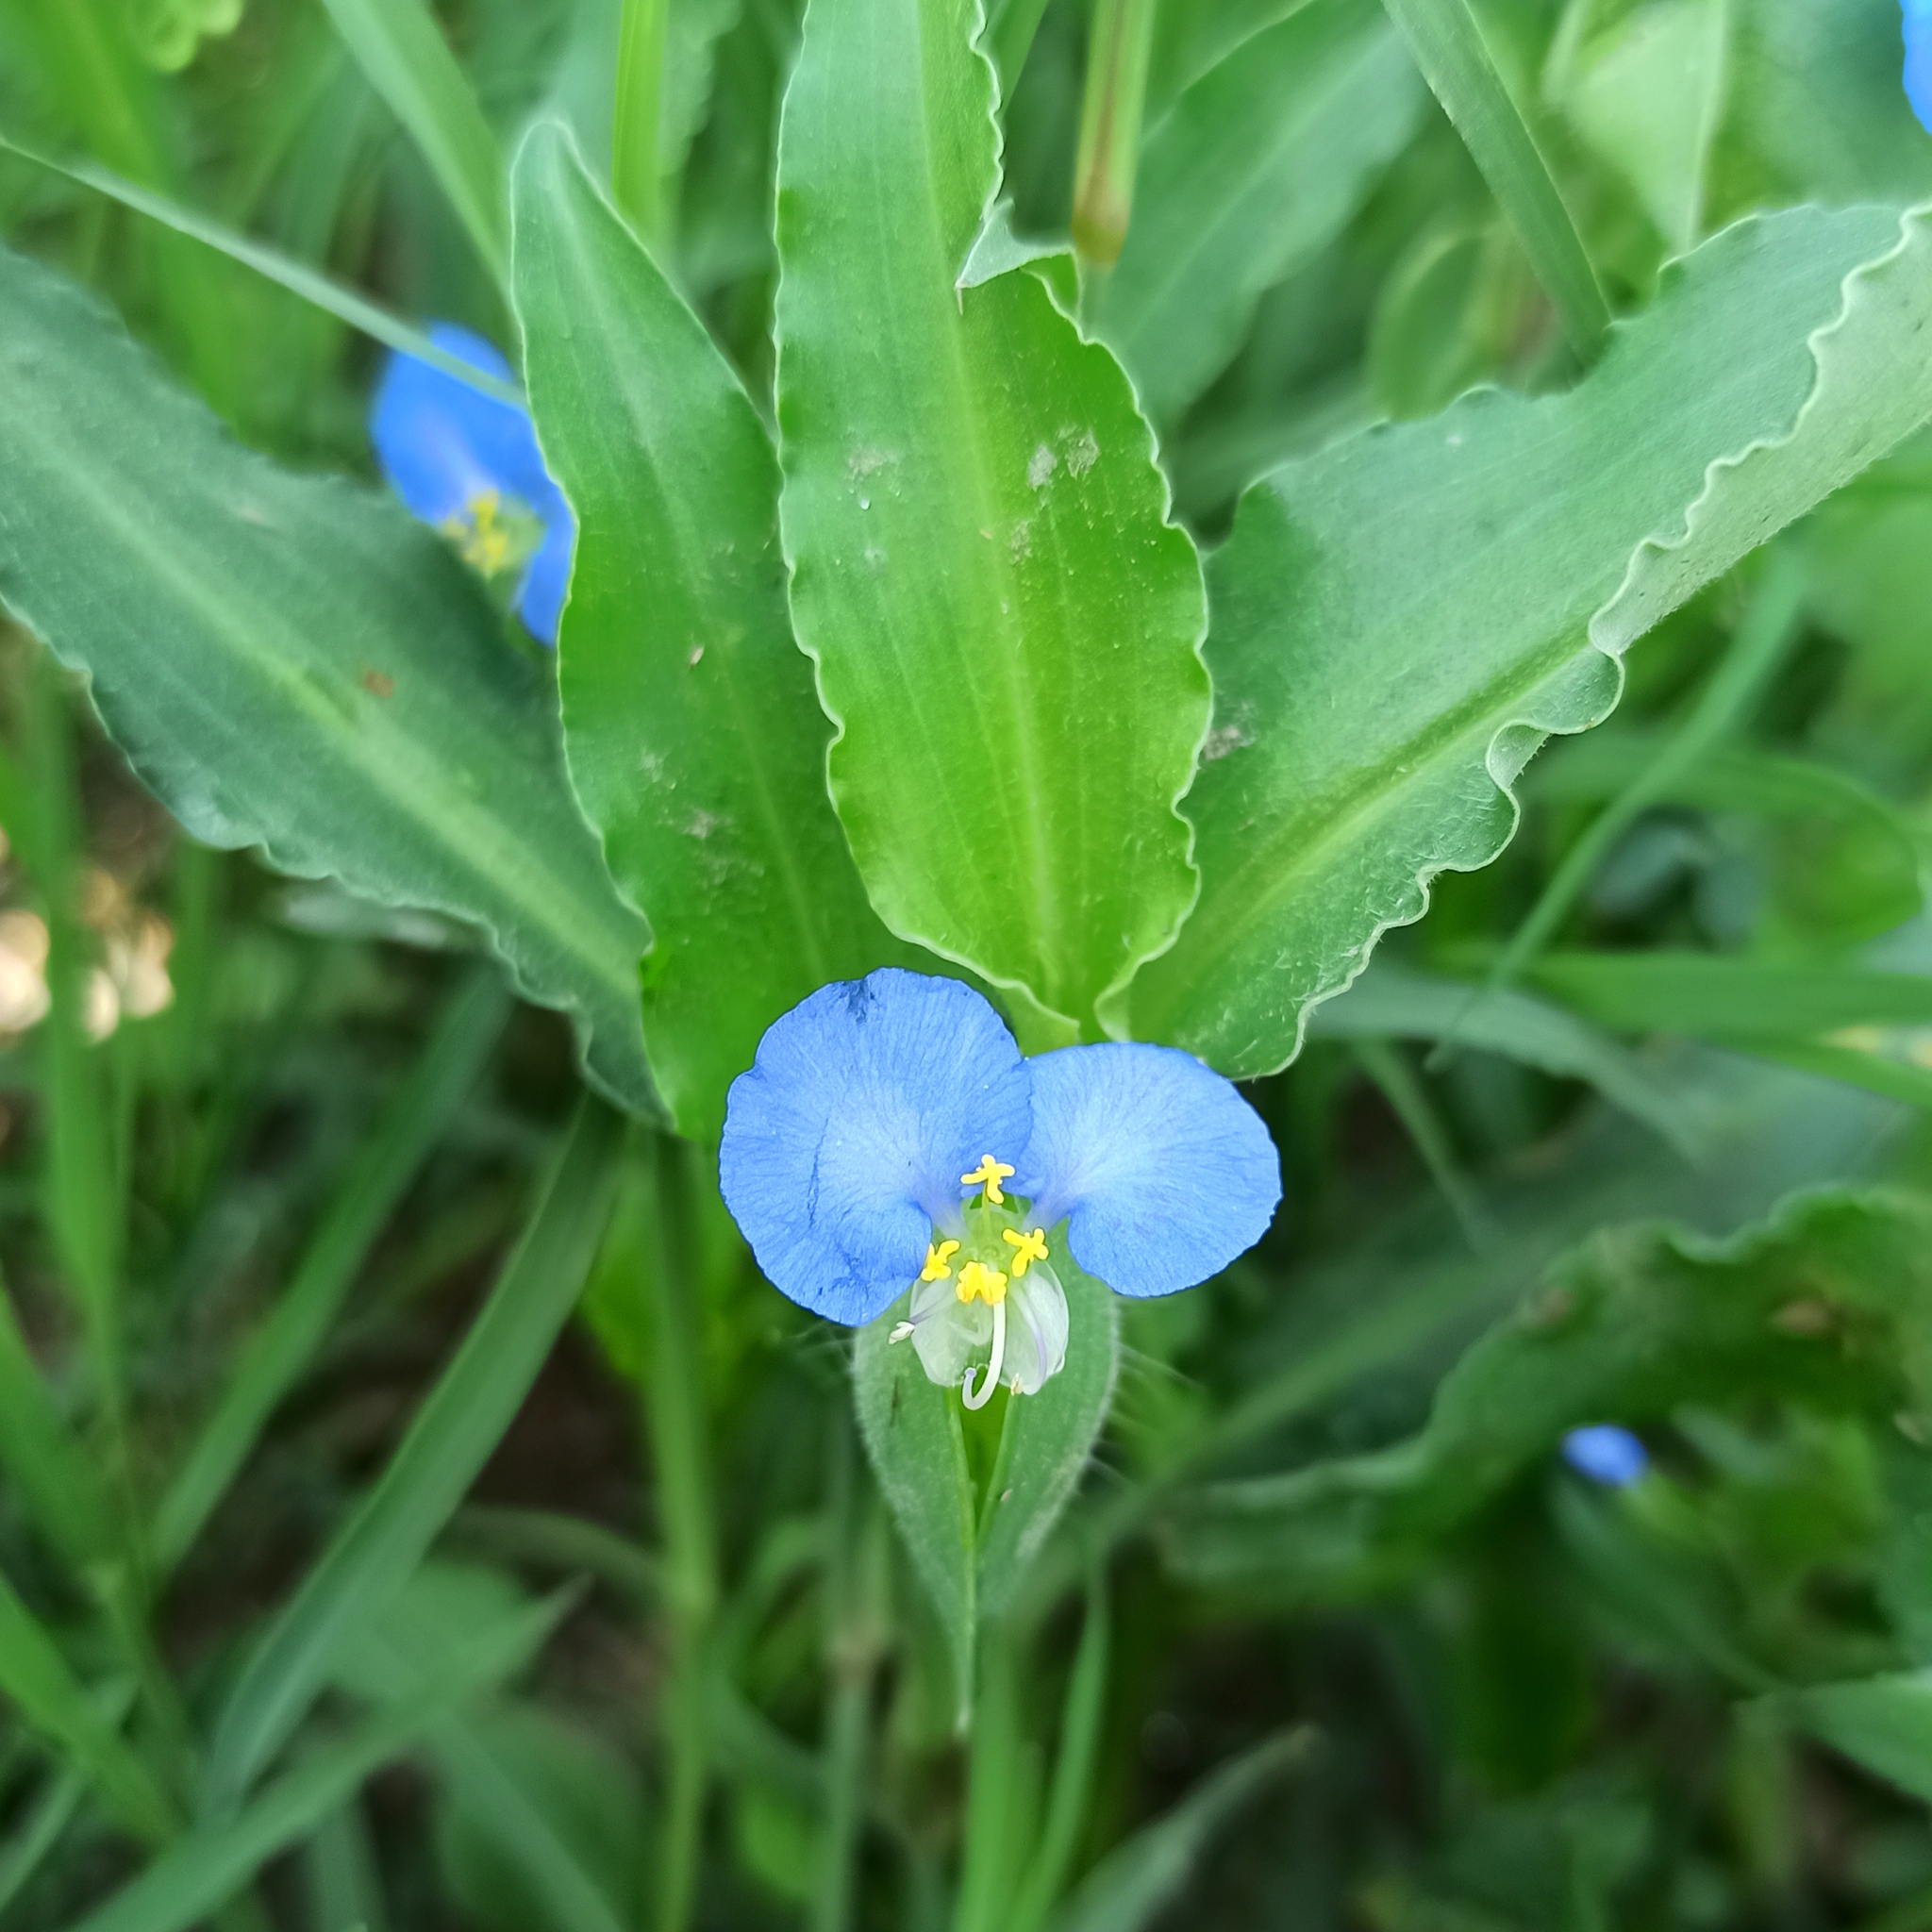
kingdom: Plantae
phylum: Tracheophyta
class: Liliopsida
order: Commelinales
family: Commelinaceae
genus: Commelina
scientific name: Commelina erecta
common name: Blousel blommetjie
